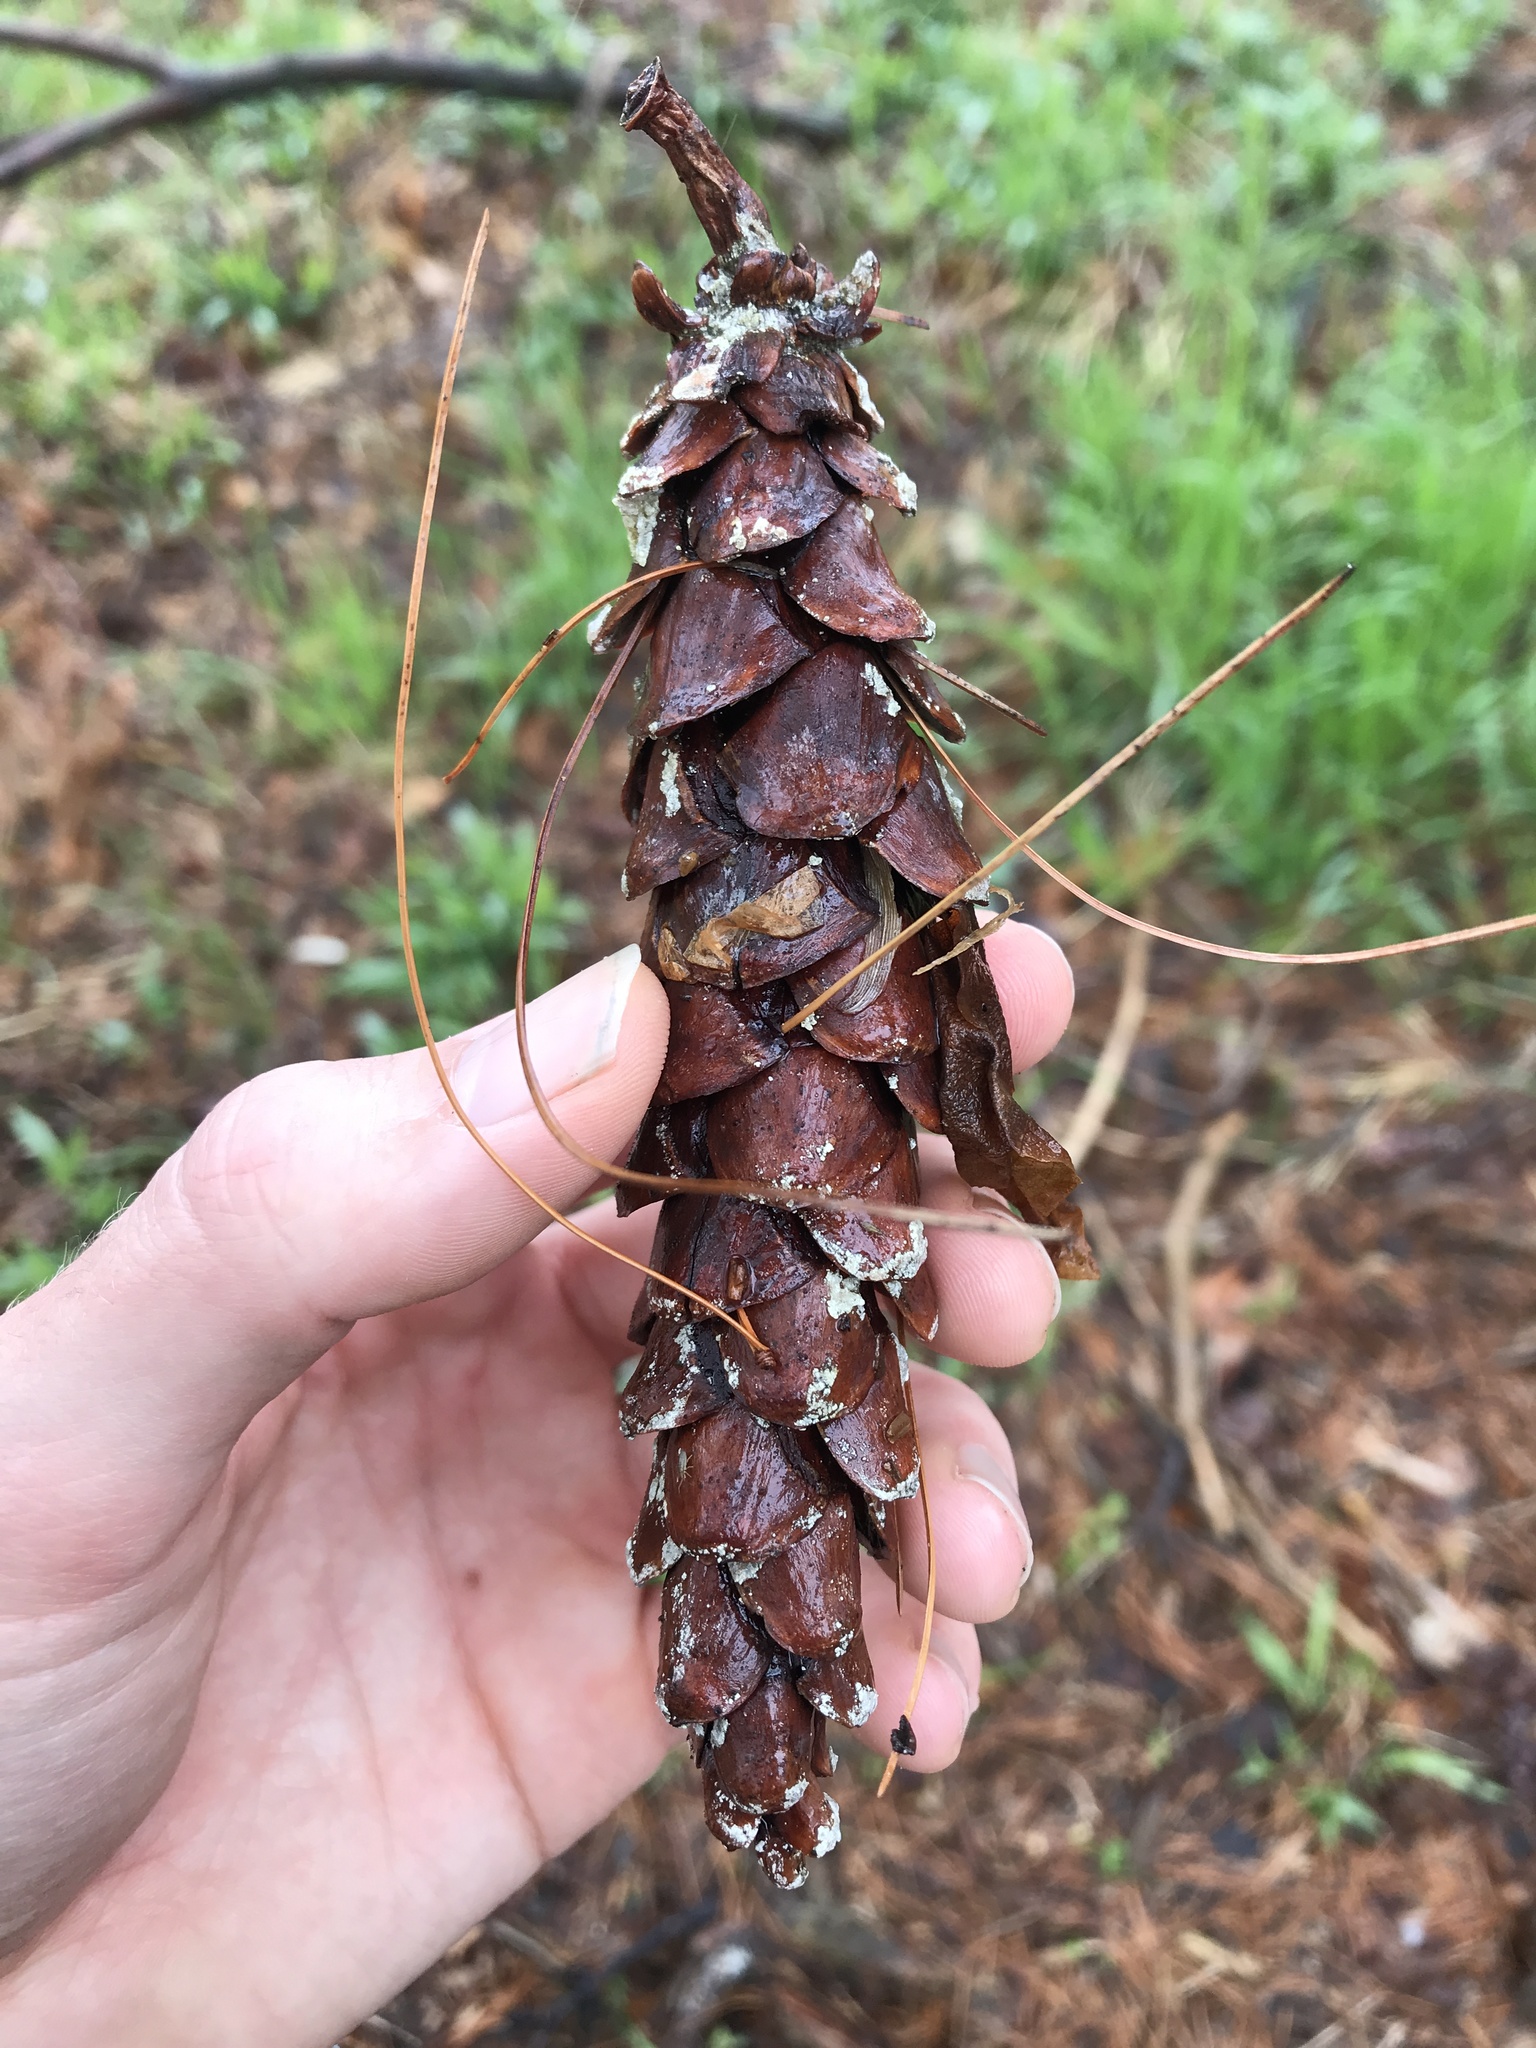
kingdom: Plantae
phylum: Tracheophyta
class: Pinopsida
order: Pinales
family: Pinaceae
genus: Pinus
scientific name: Pinus strobus
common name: Weymouth pine
